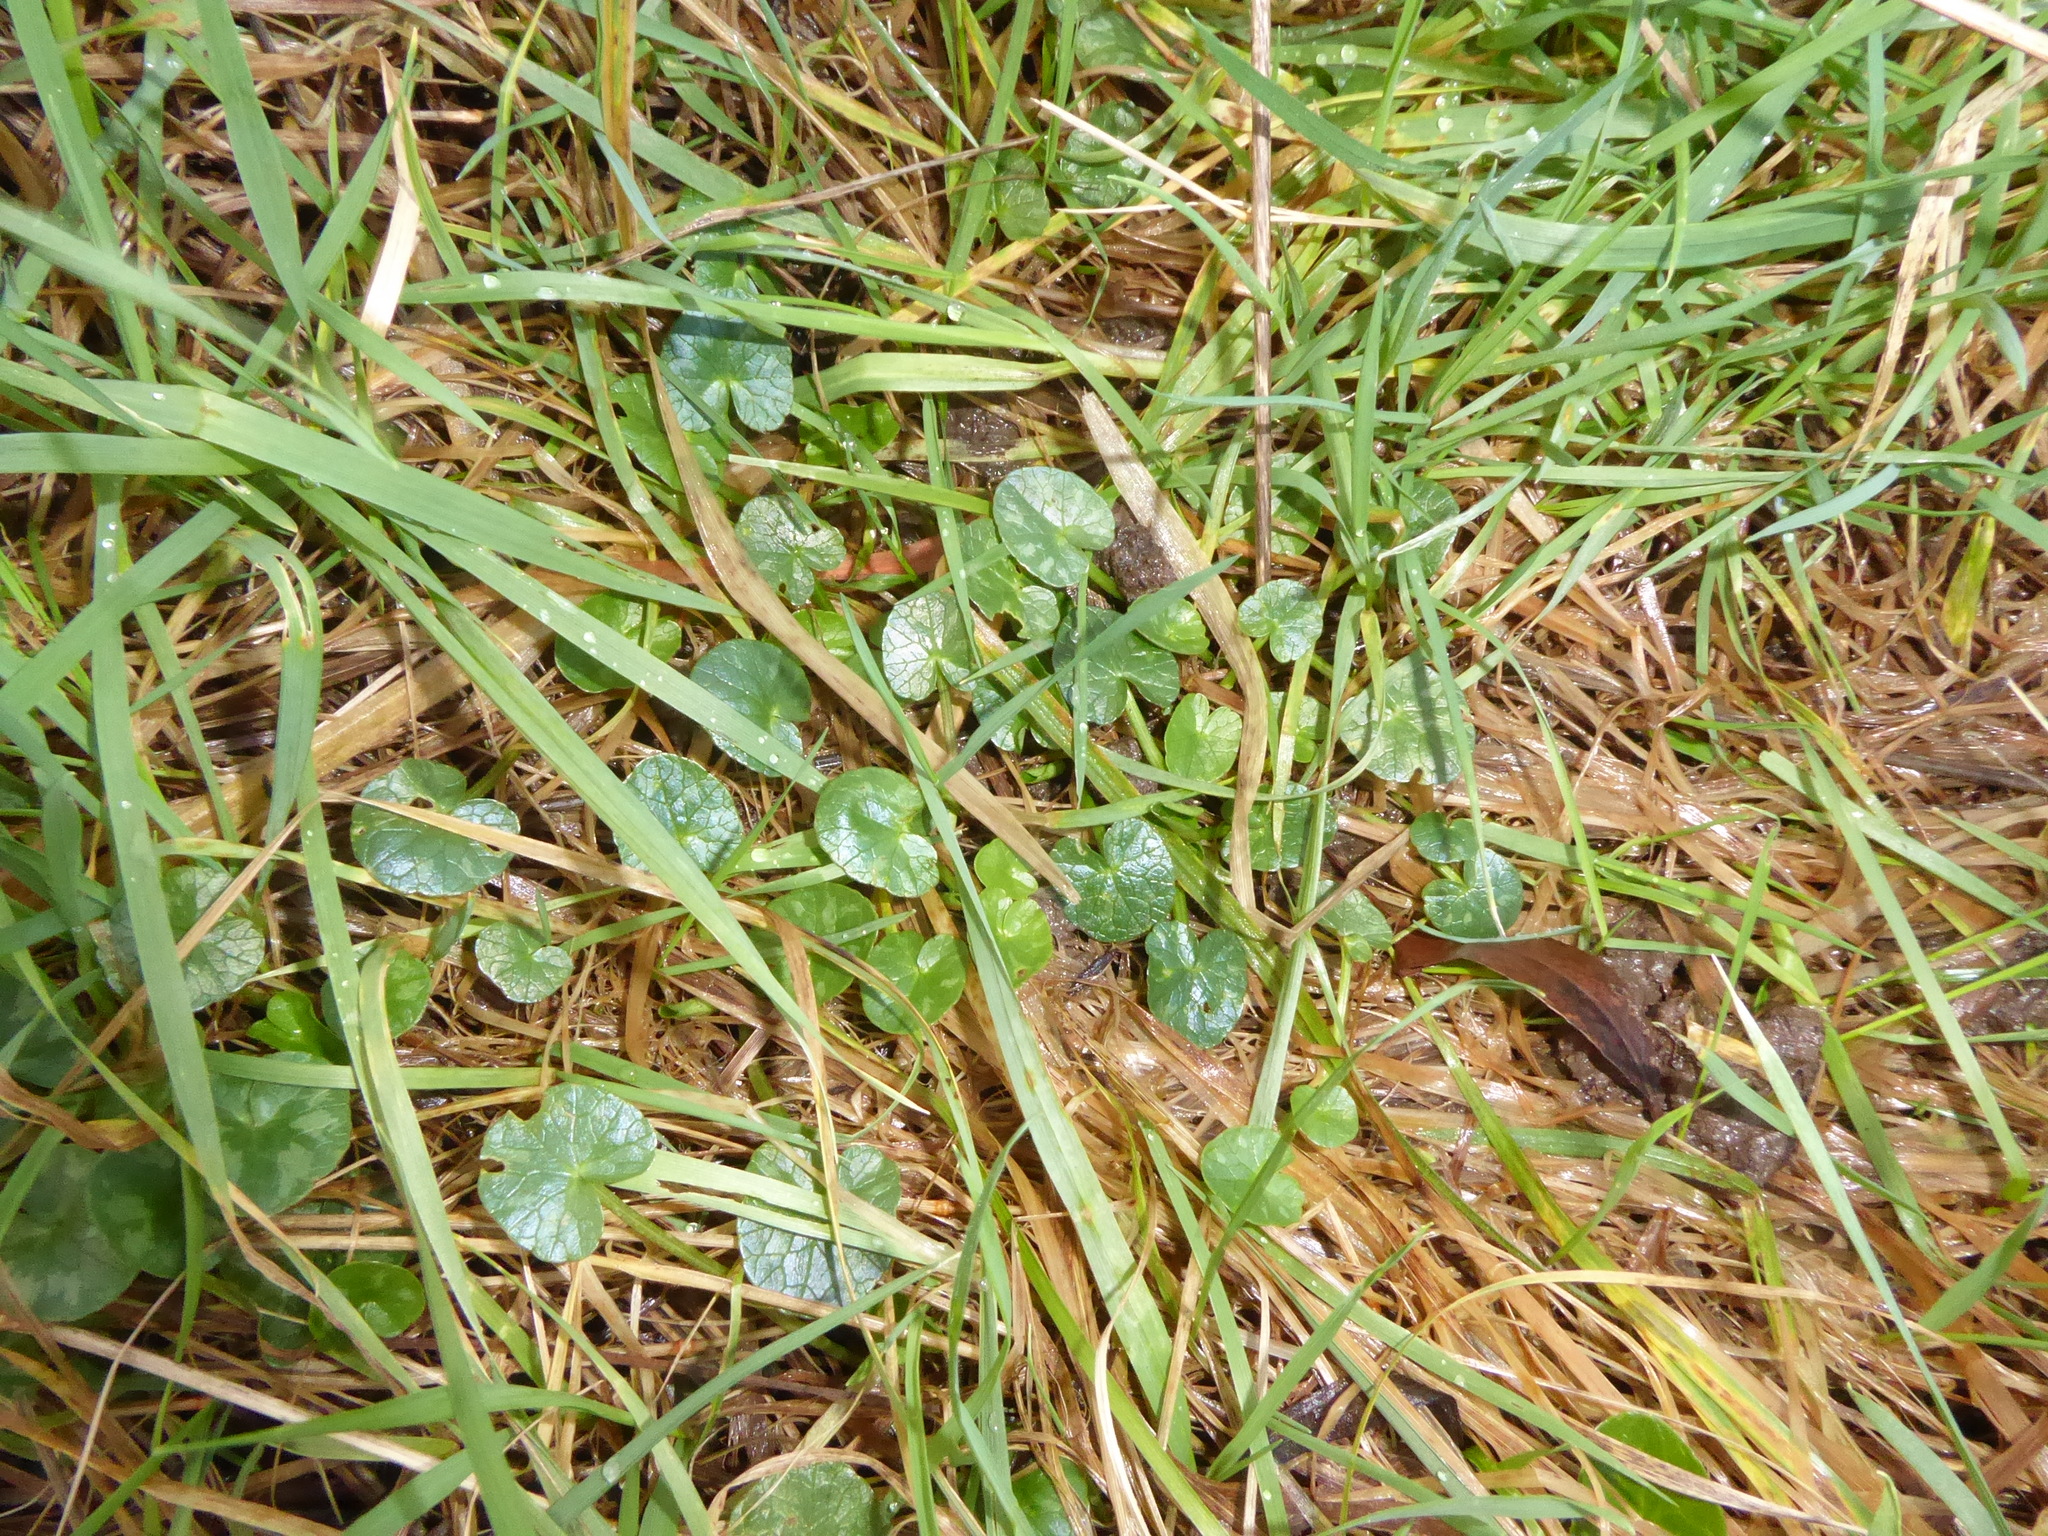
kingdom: Plantae
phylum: Tracheophyta
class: Magnoliopsida
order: Ranunculales
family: Ranunculaceae
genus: Ficaria
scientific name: Ficaria verna
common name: Lesser celandine
